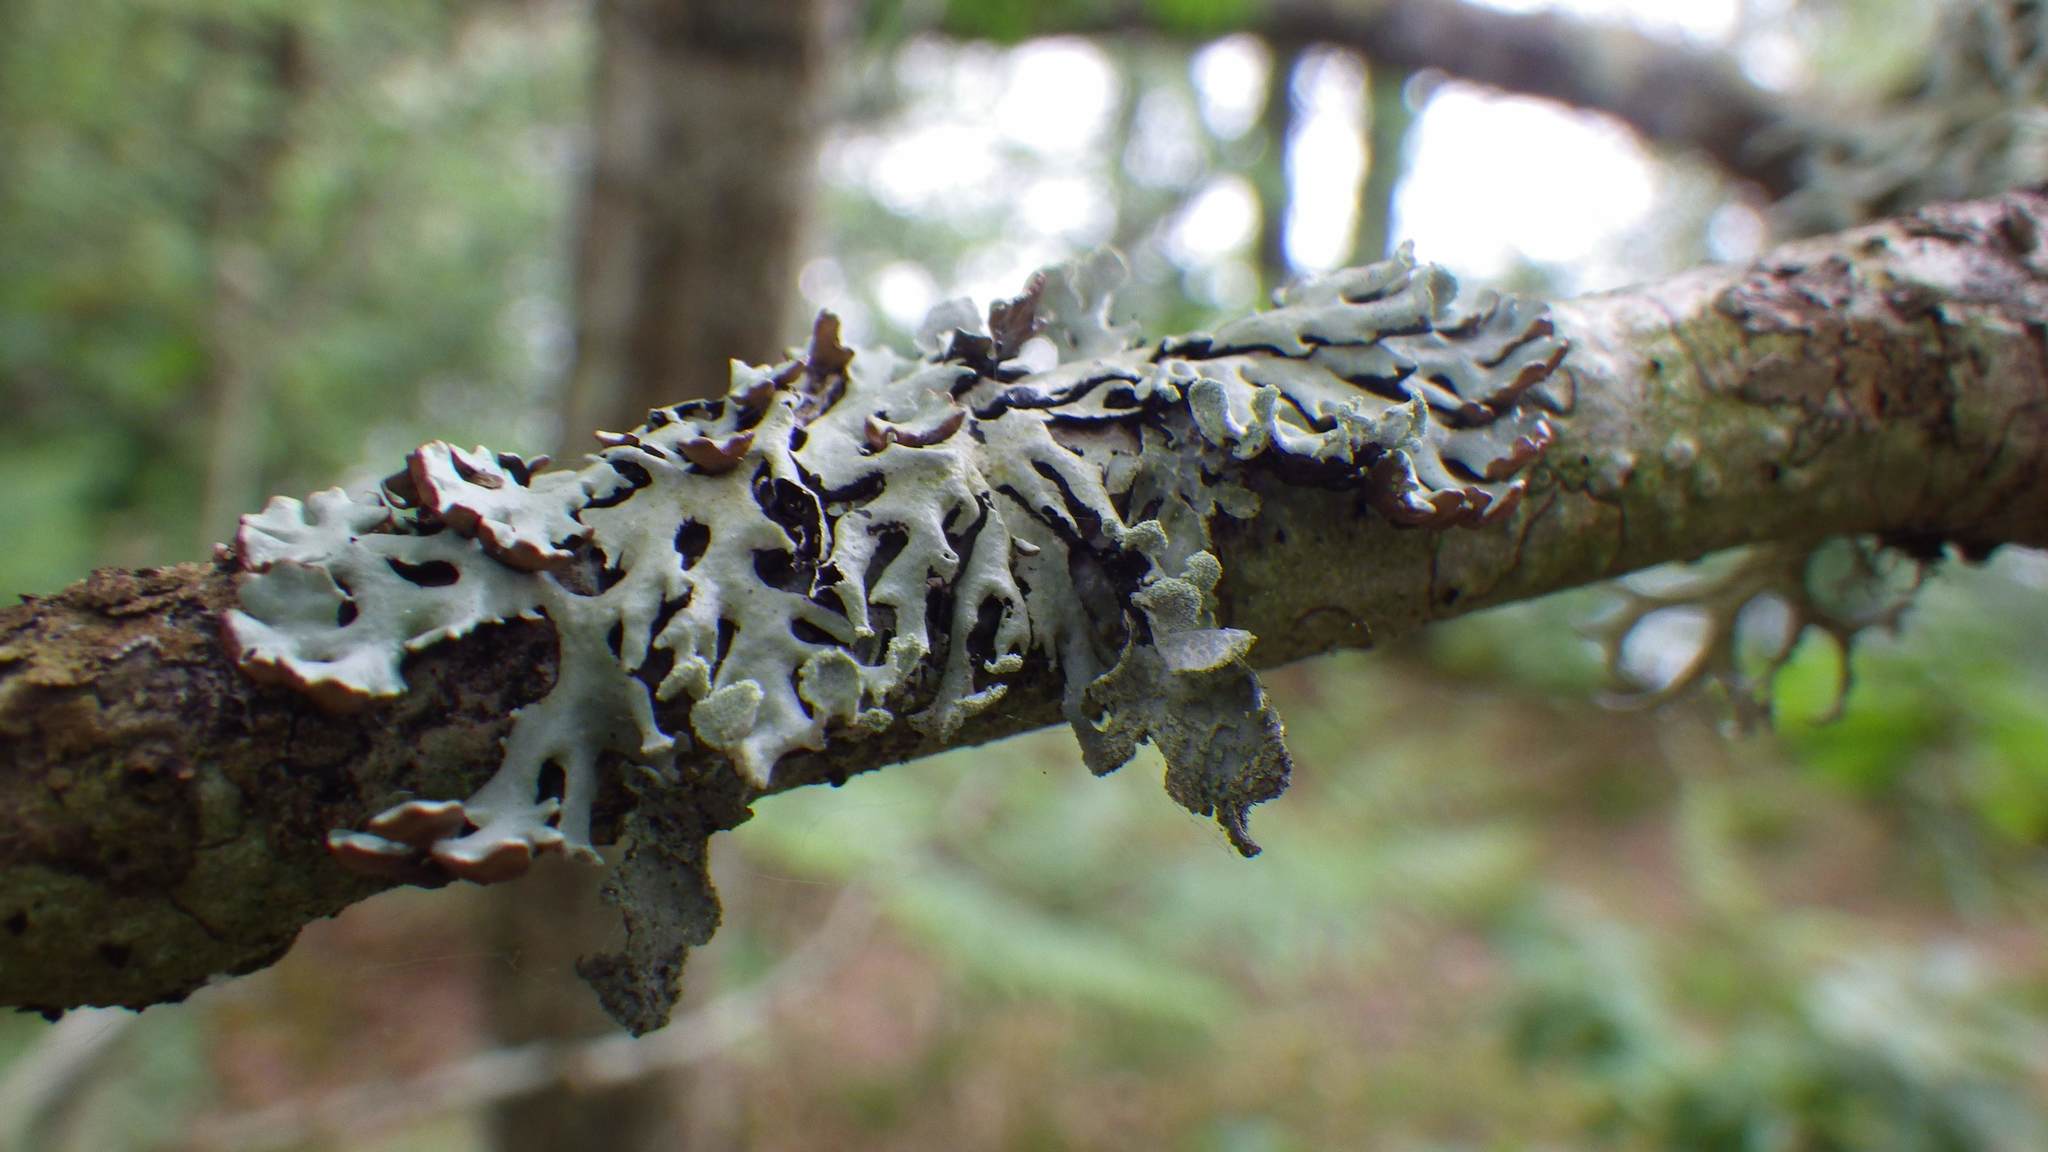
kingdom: Fungi
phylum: Ascomycota
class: Lecanoromycetes
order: Lecanorales
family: Parmeliaceae
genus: Hypogymnia
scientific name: Hypogymnia physodes
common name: Dark crottle
